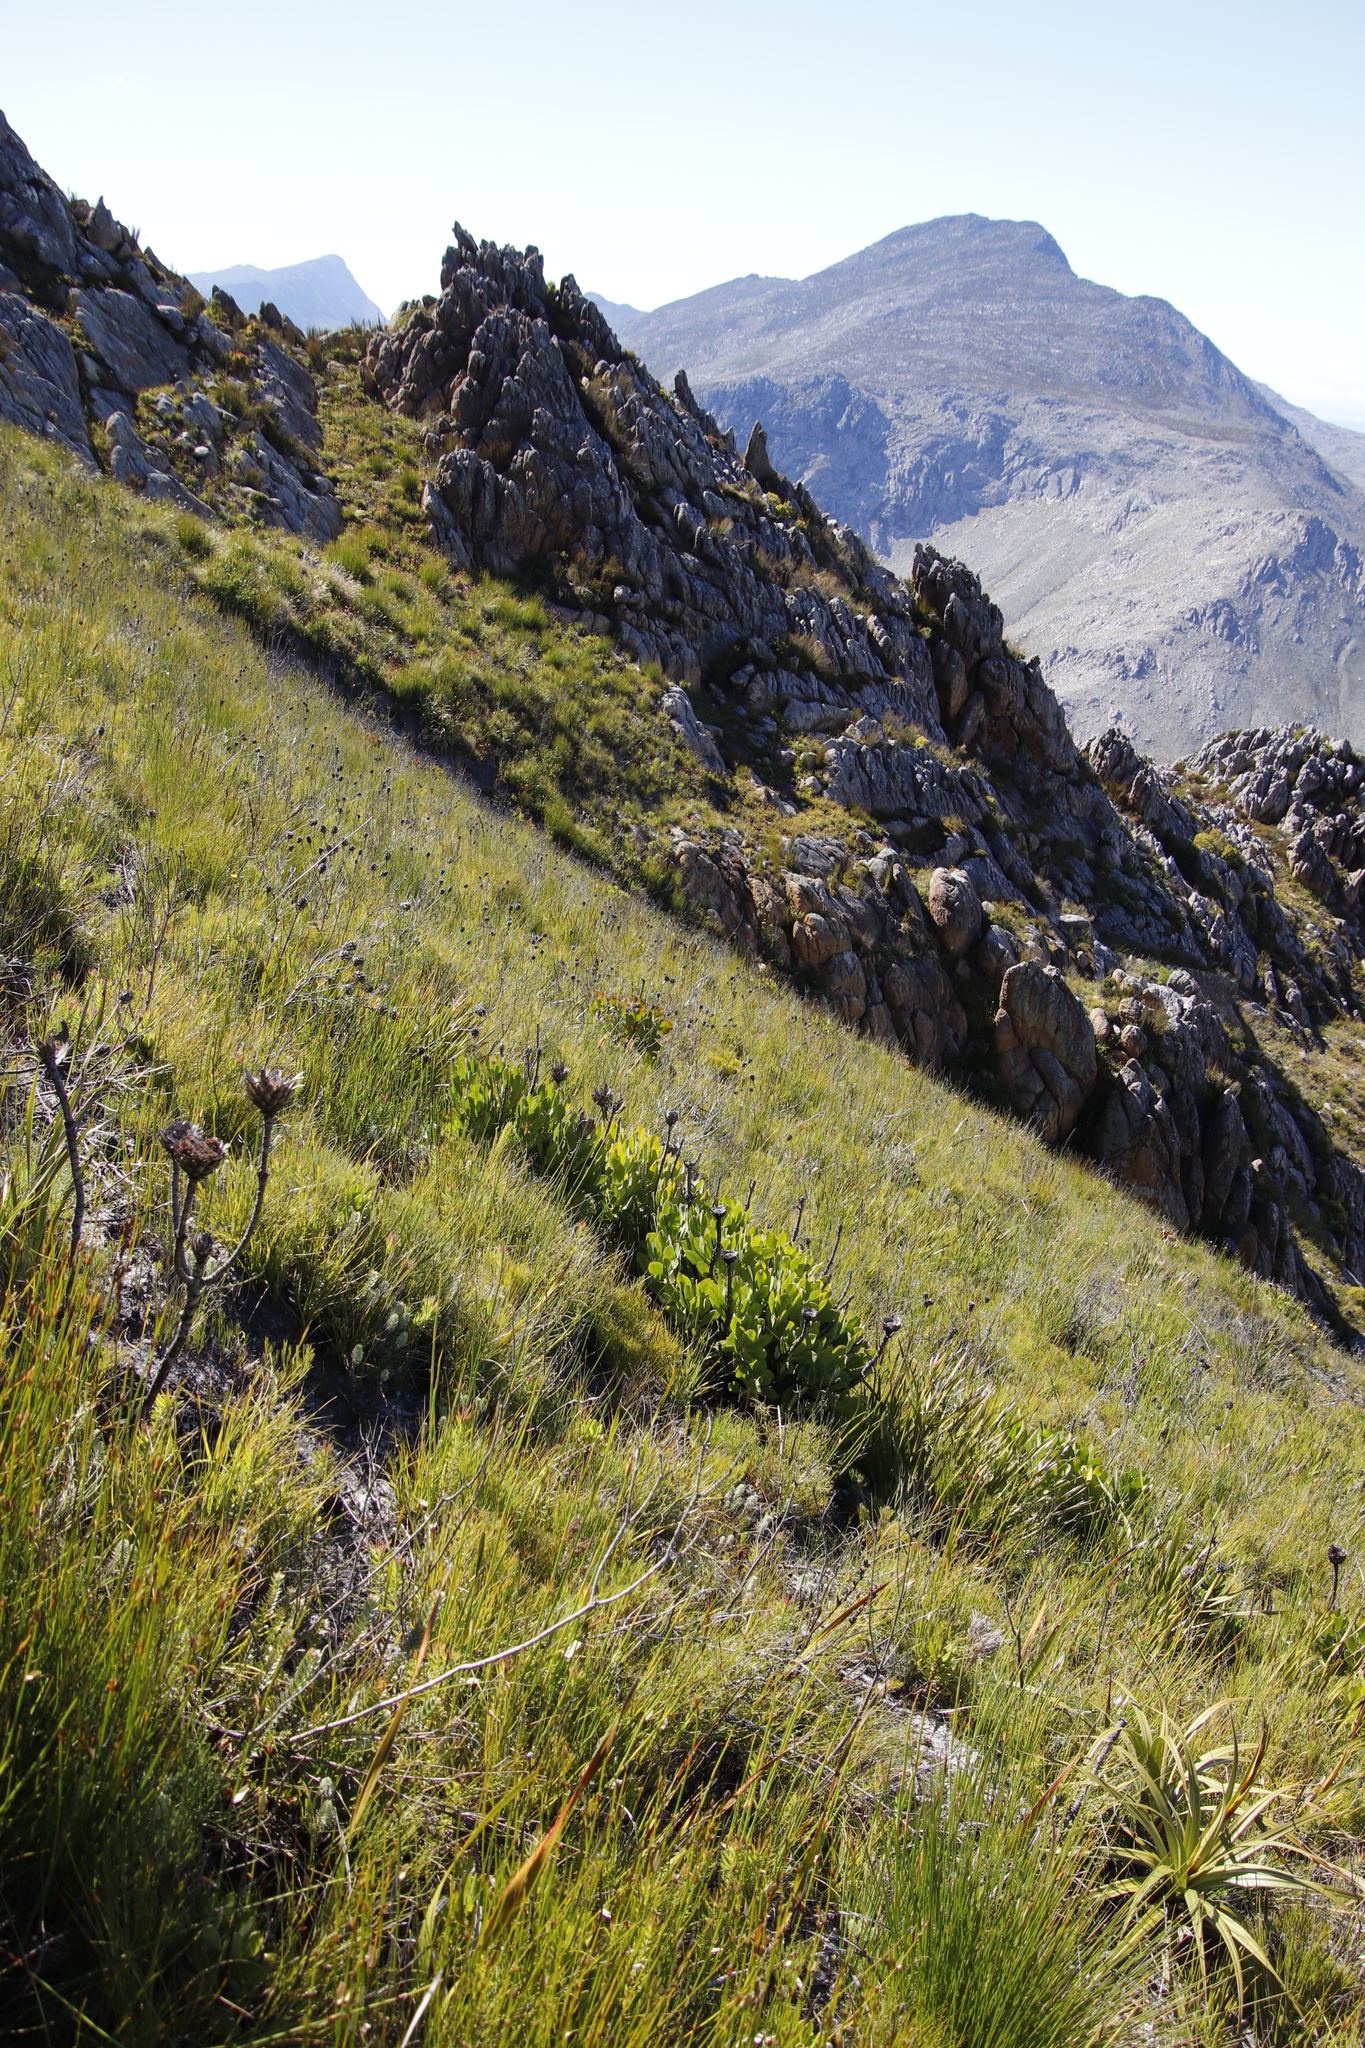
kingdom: Plantae
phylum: Tracheophyta
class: Magnoliopsida
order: Proteales
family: Proteaceae
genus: Protea
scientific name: Protea cynaroides
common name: King protea
